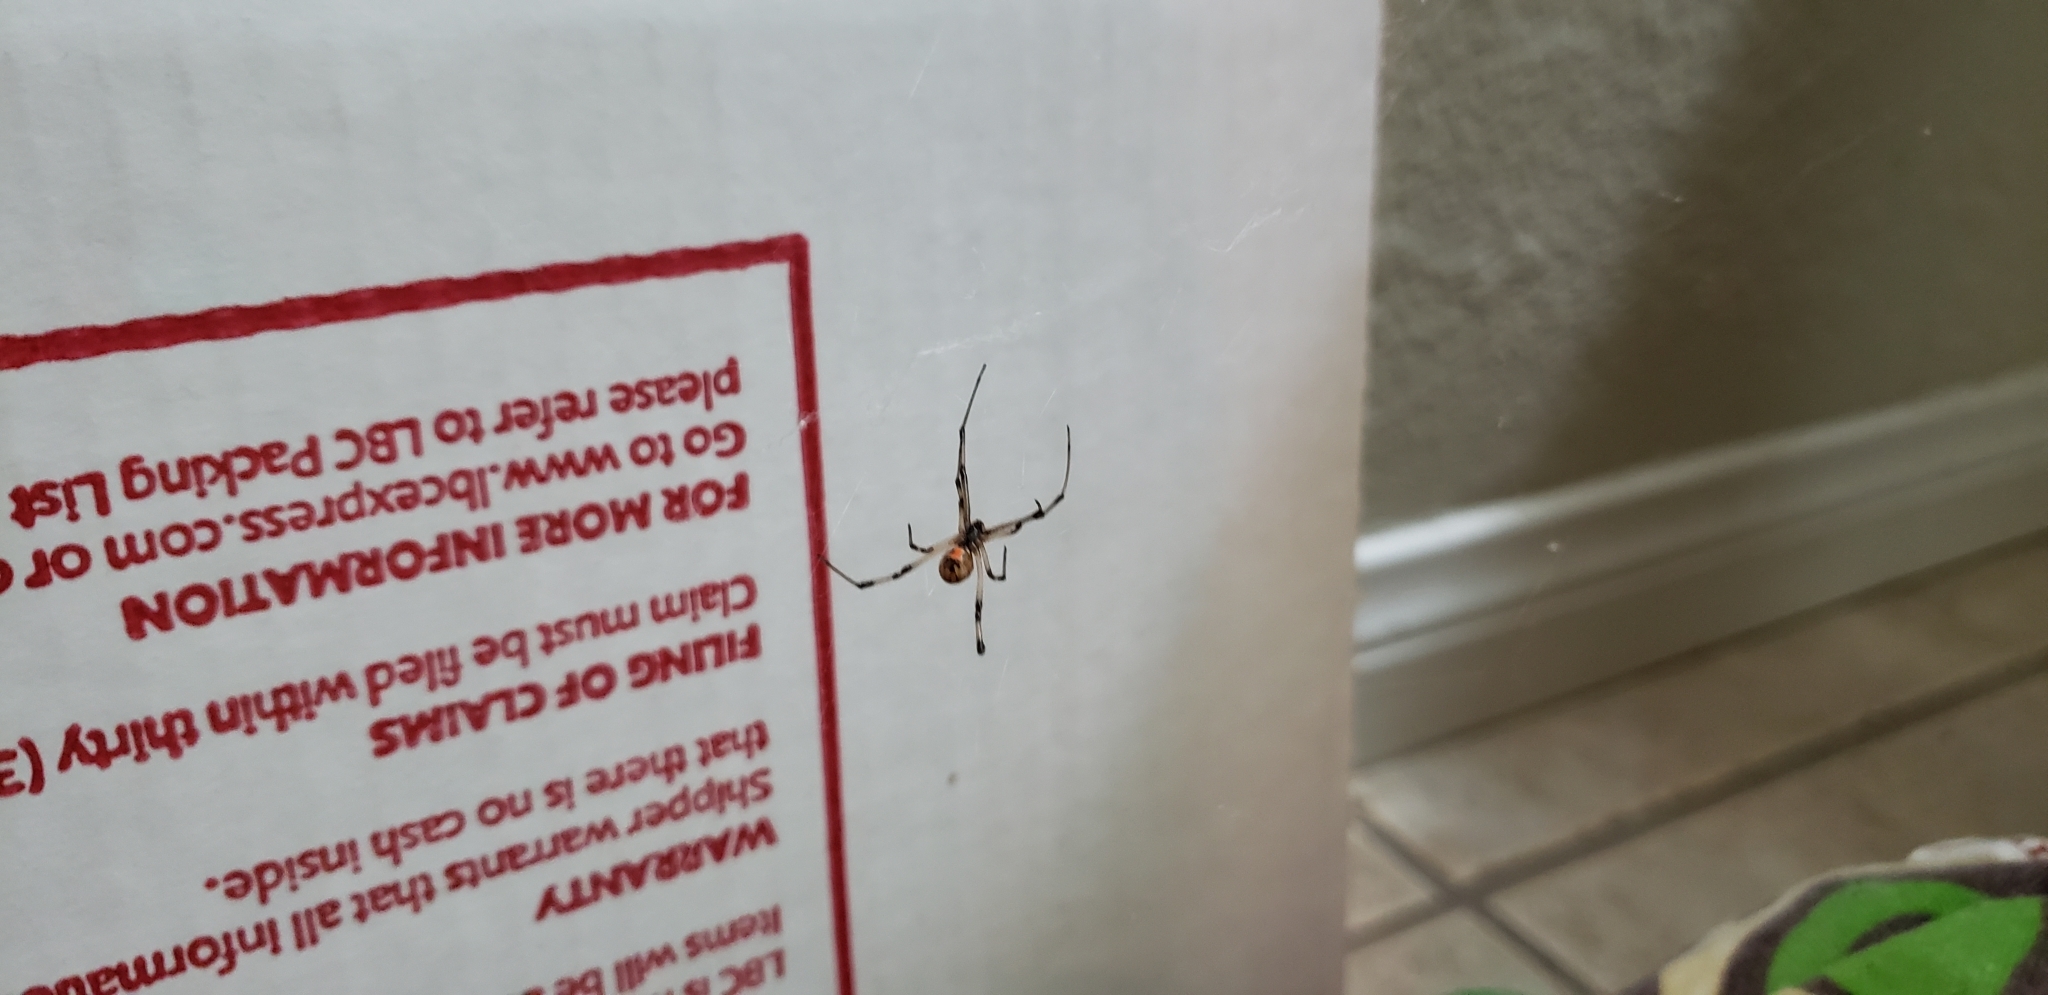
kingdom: Animalia
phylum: Arthropoda
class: Arachnida
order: Araneae
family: Theridiidae
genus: Latrodectus
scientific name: Latrodectus geometricus
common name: Brown widow spider
